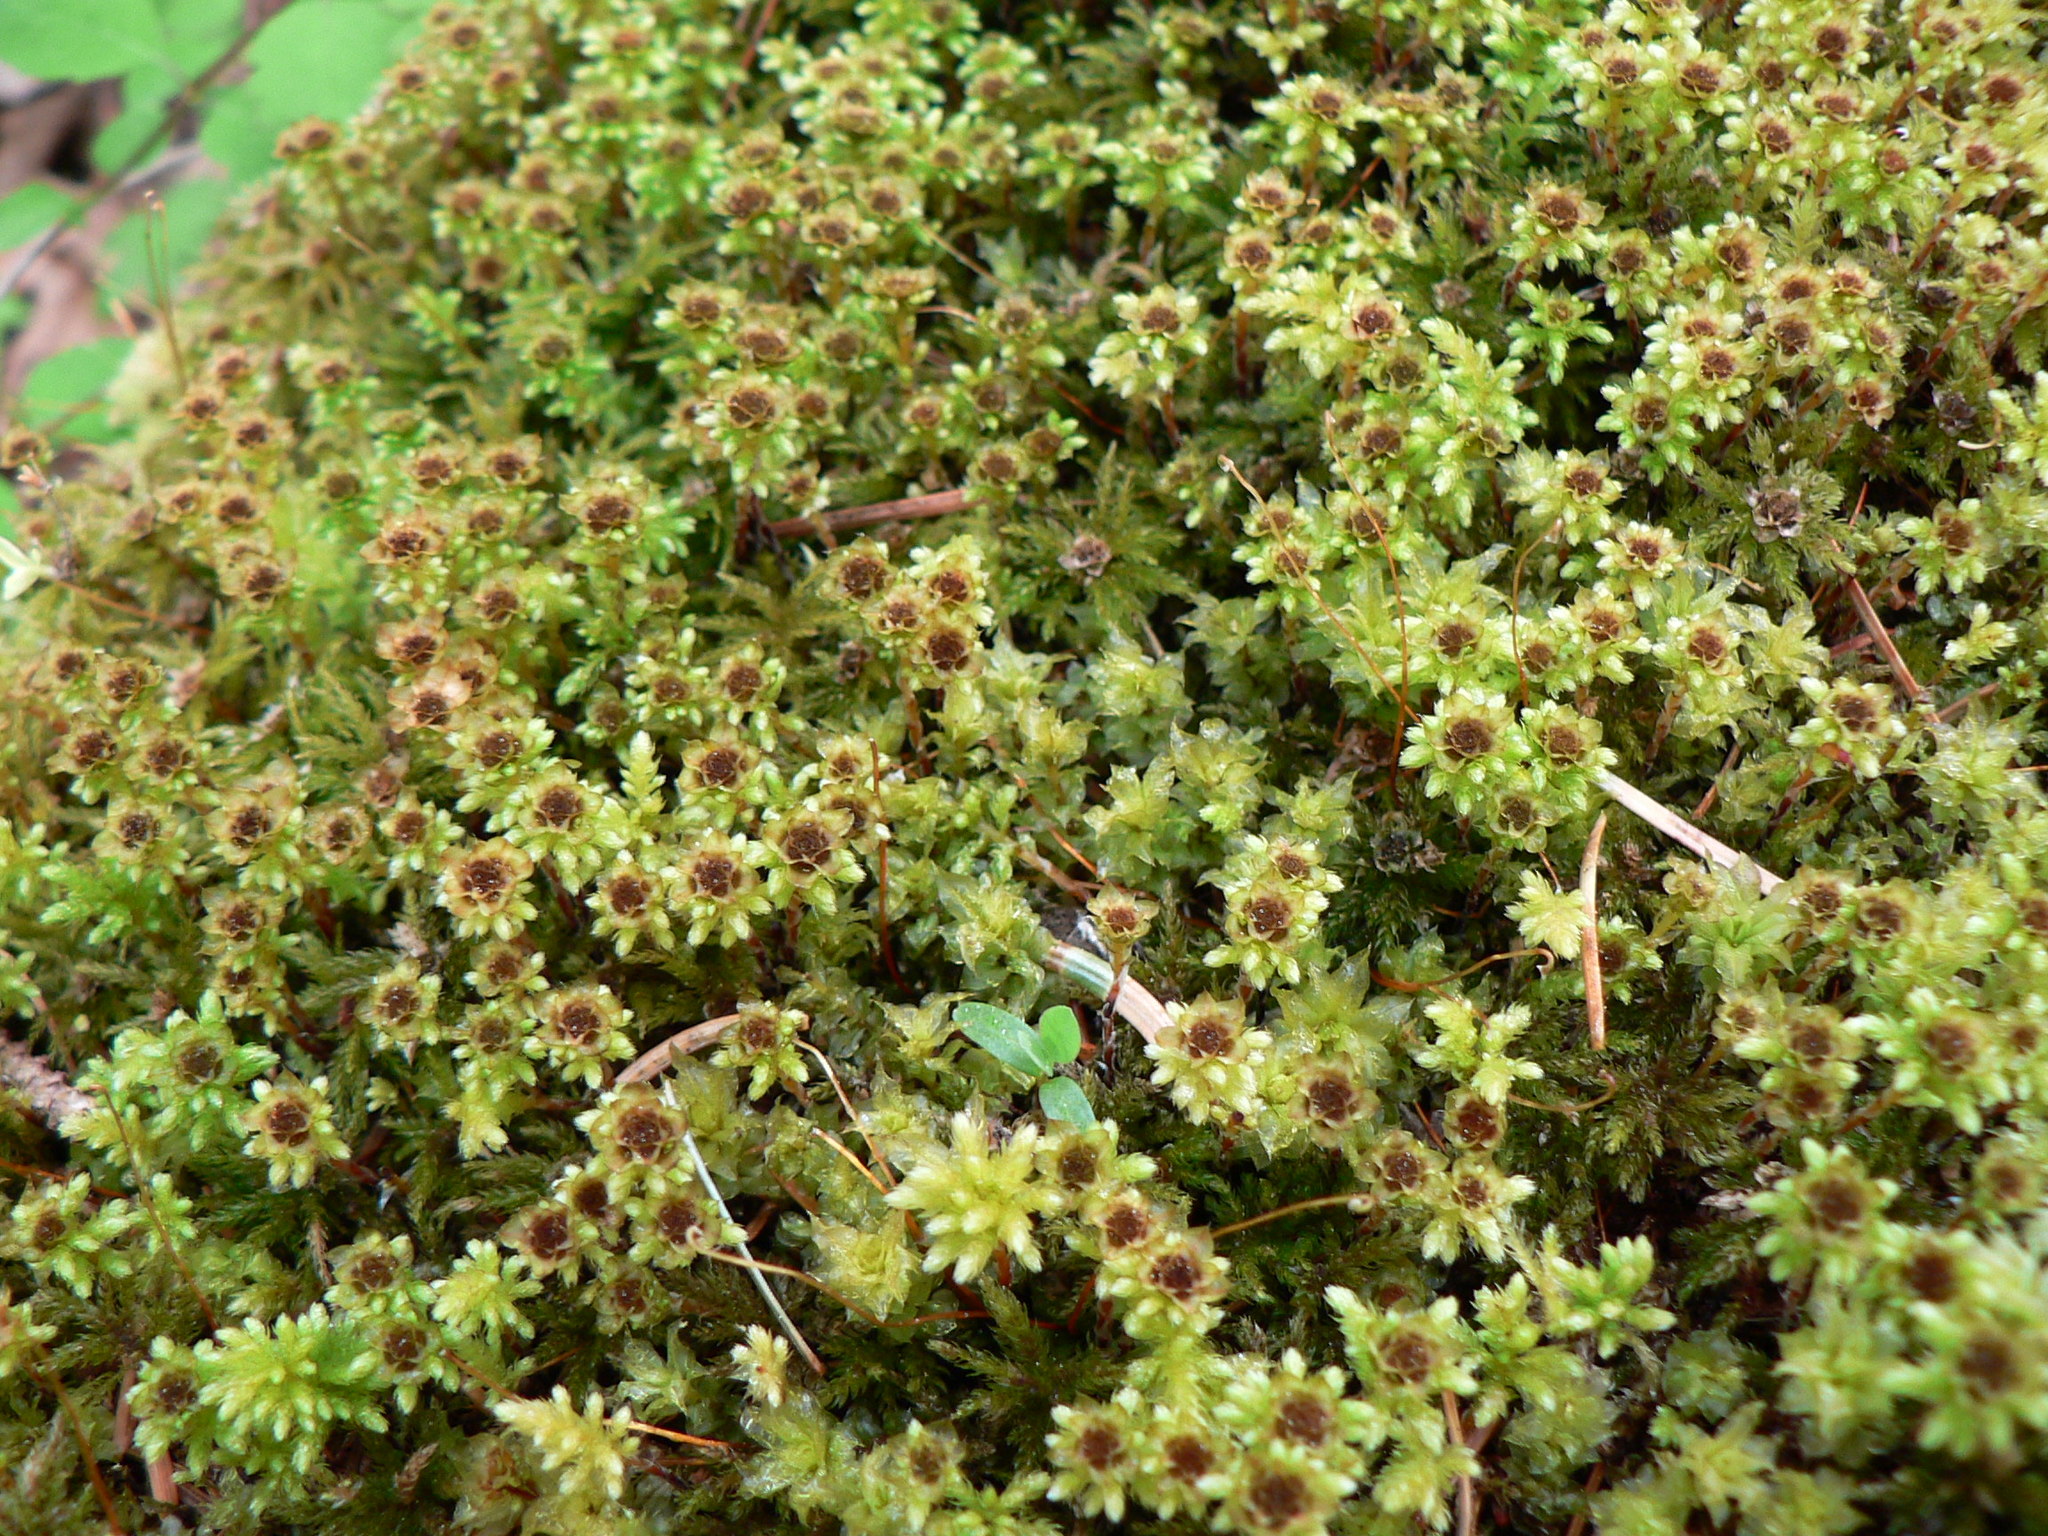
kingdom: Plantae
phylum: Bryophyta
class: Bryopsida
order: Bryales
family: Mniaceae
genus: Leucolepis
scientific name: Leucolepis acanthoneura
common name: Leucolepis umbrella moss
